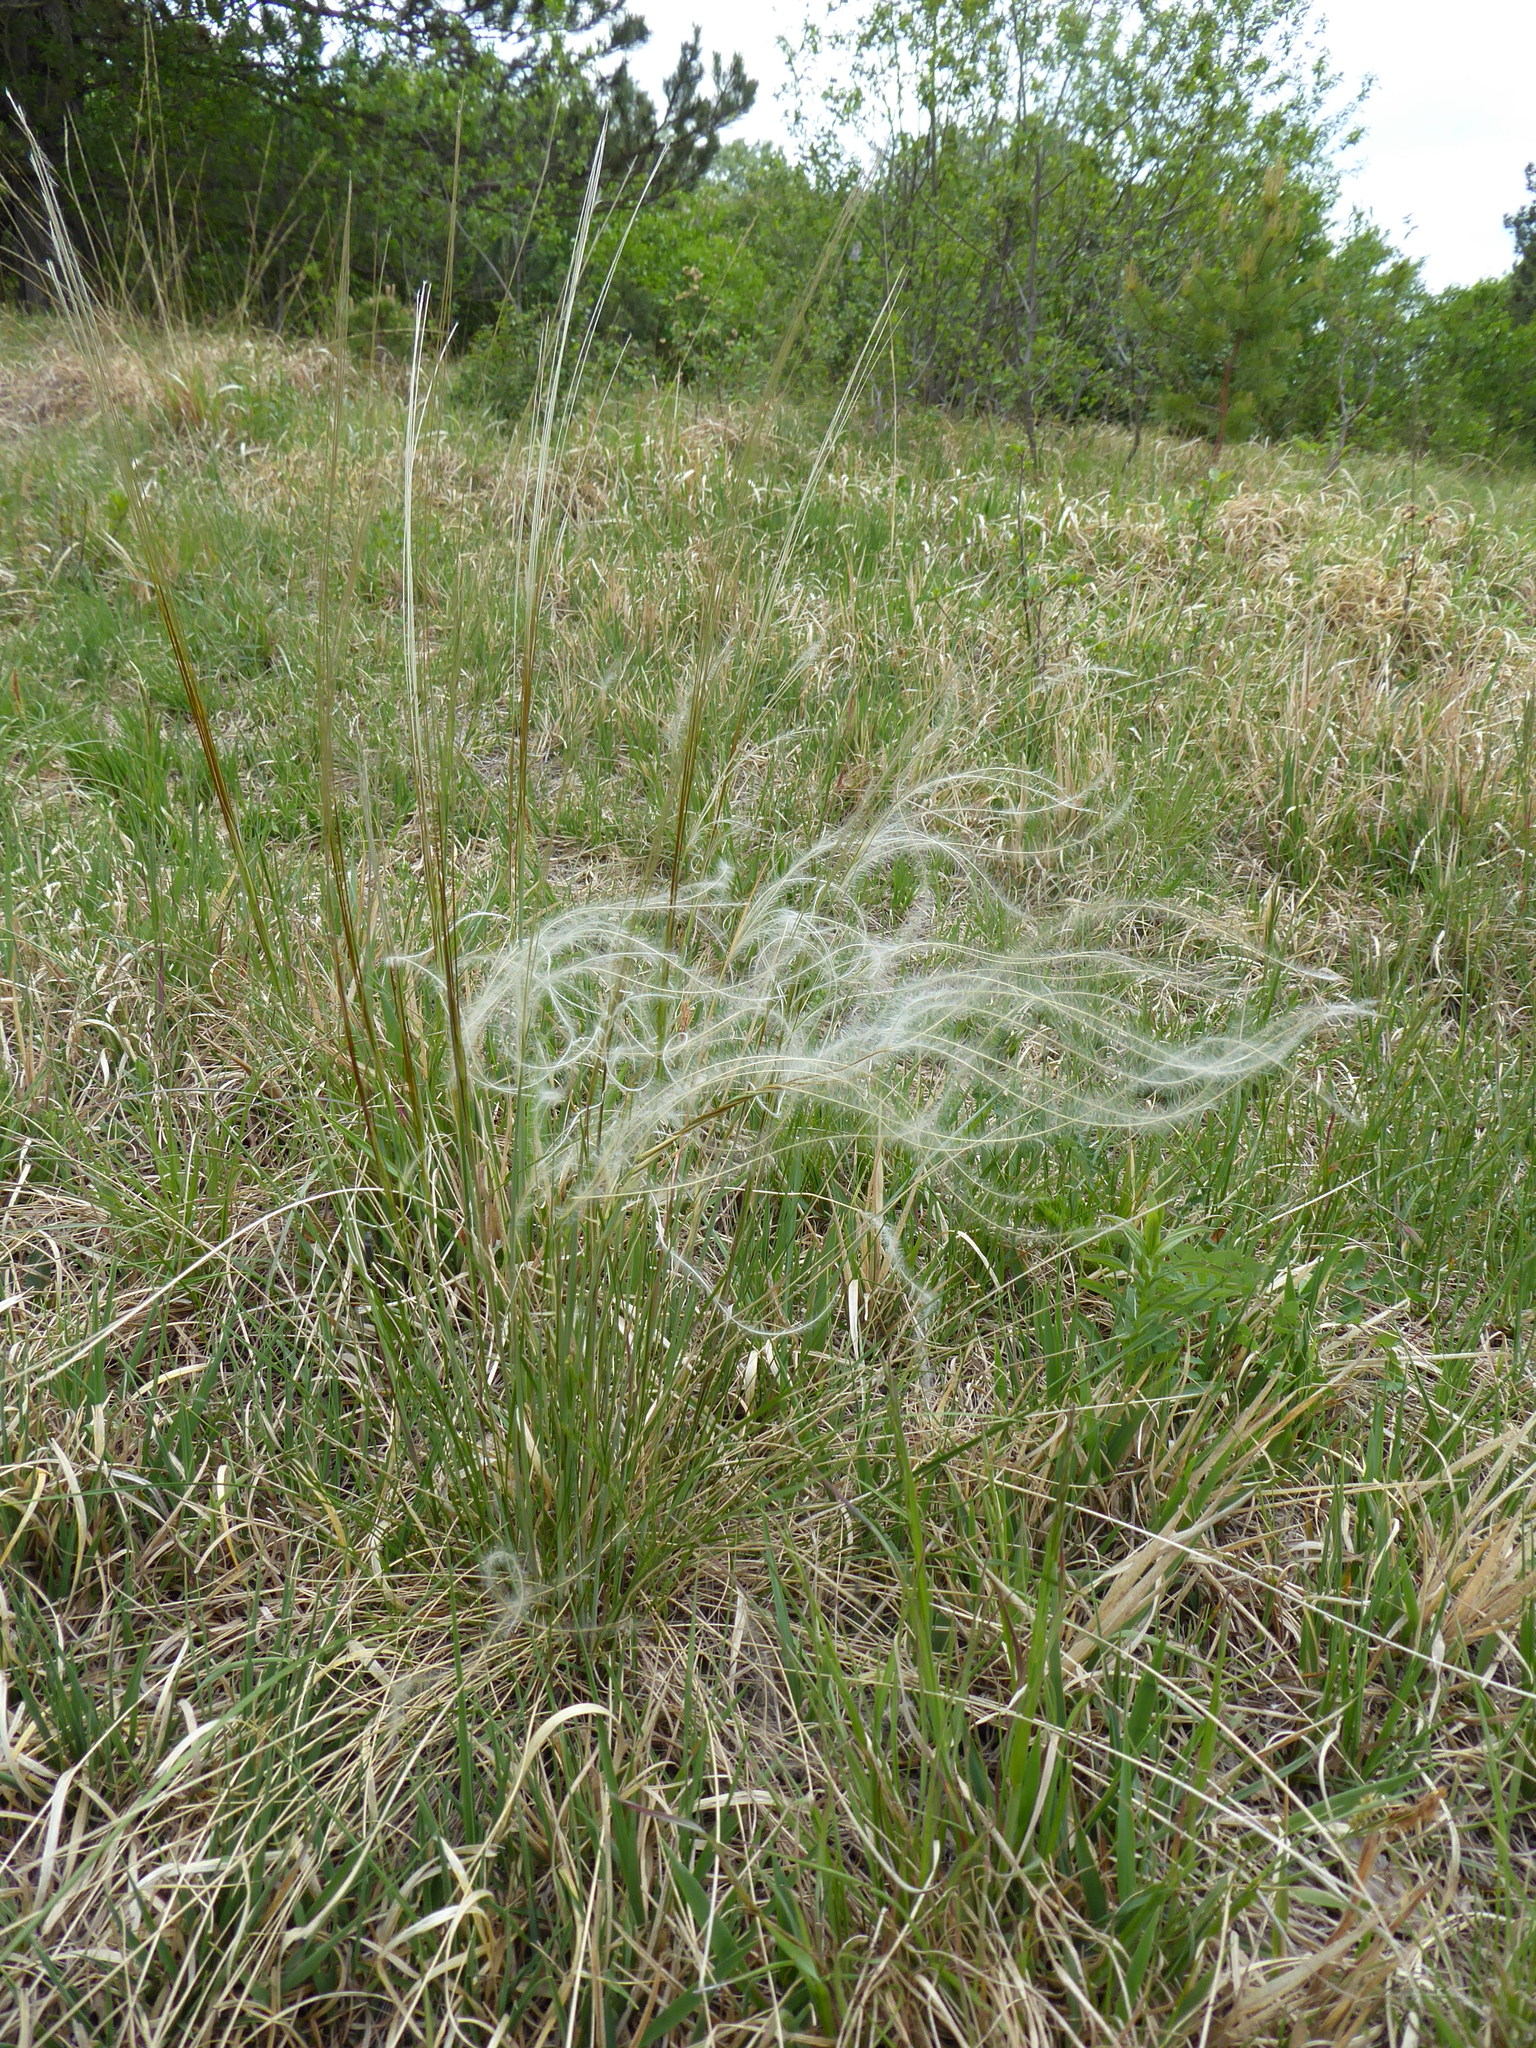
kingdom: Plantae
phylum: Tracheophyta
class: Liliopsida
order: Poales
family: Poaceae
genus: Stipa
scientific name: Stipa pennata
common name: European feather grass
